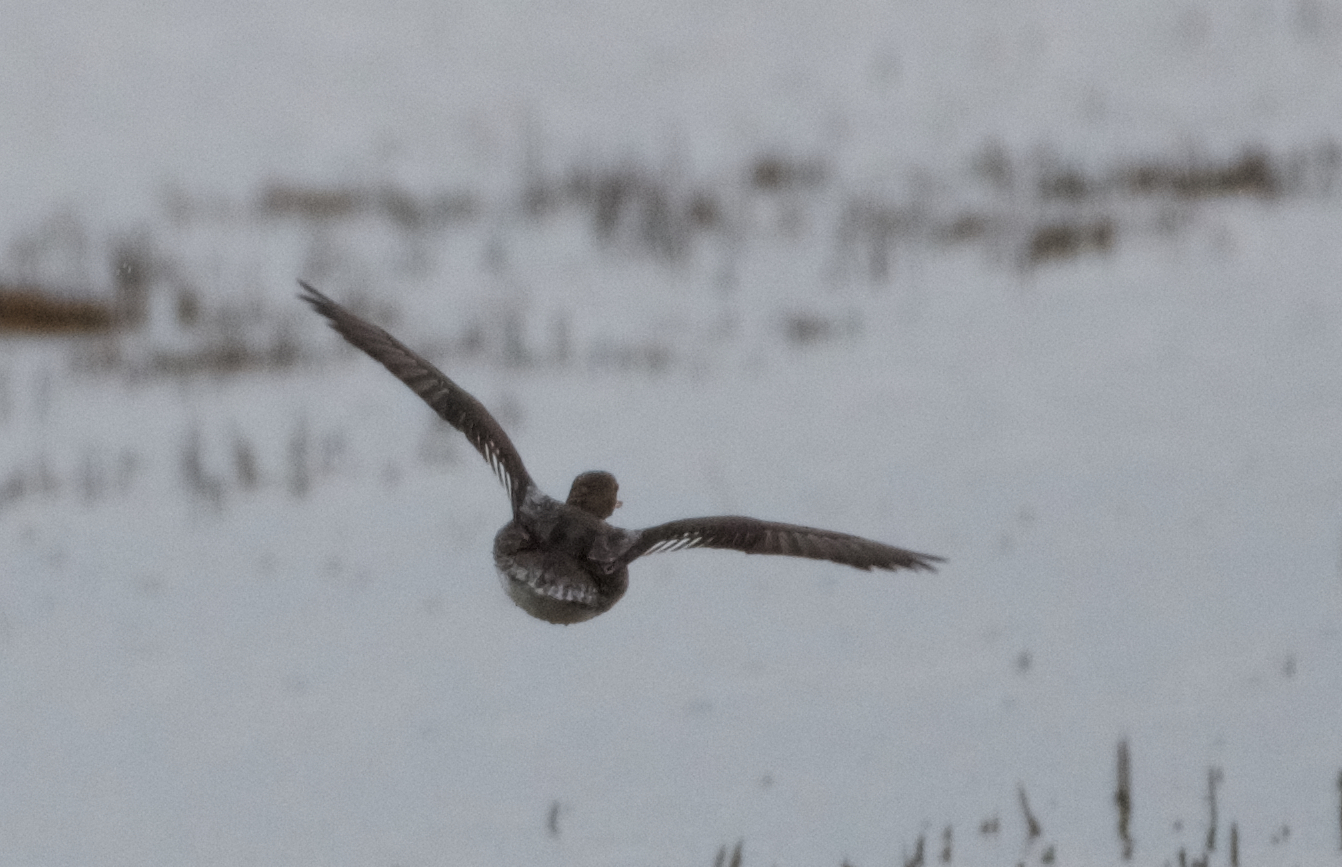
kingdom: Animalia
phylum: Chordata
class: Aves
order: Anseriformes
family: Anatidae
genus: Lophodytes
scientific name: Lophodytes cucullatus
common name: Hooded merganser
